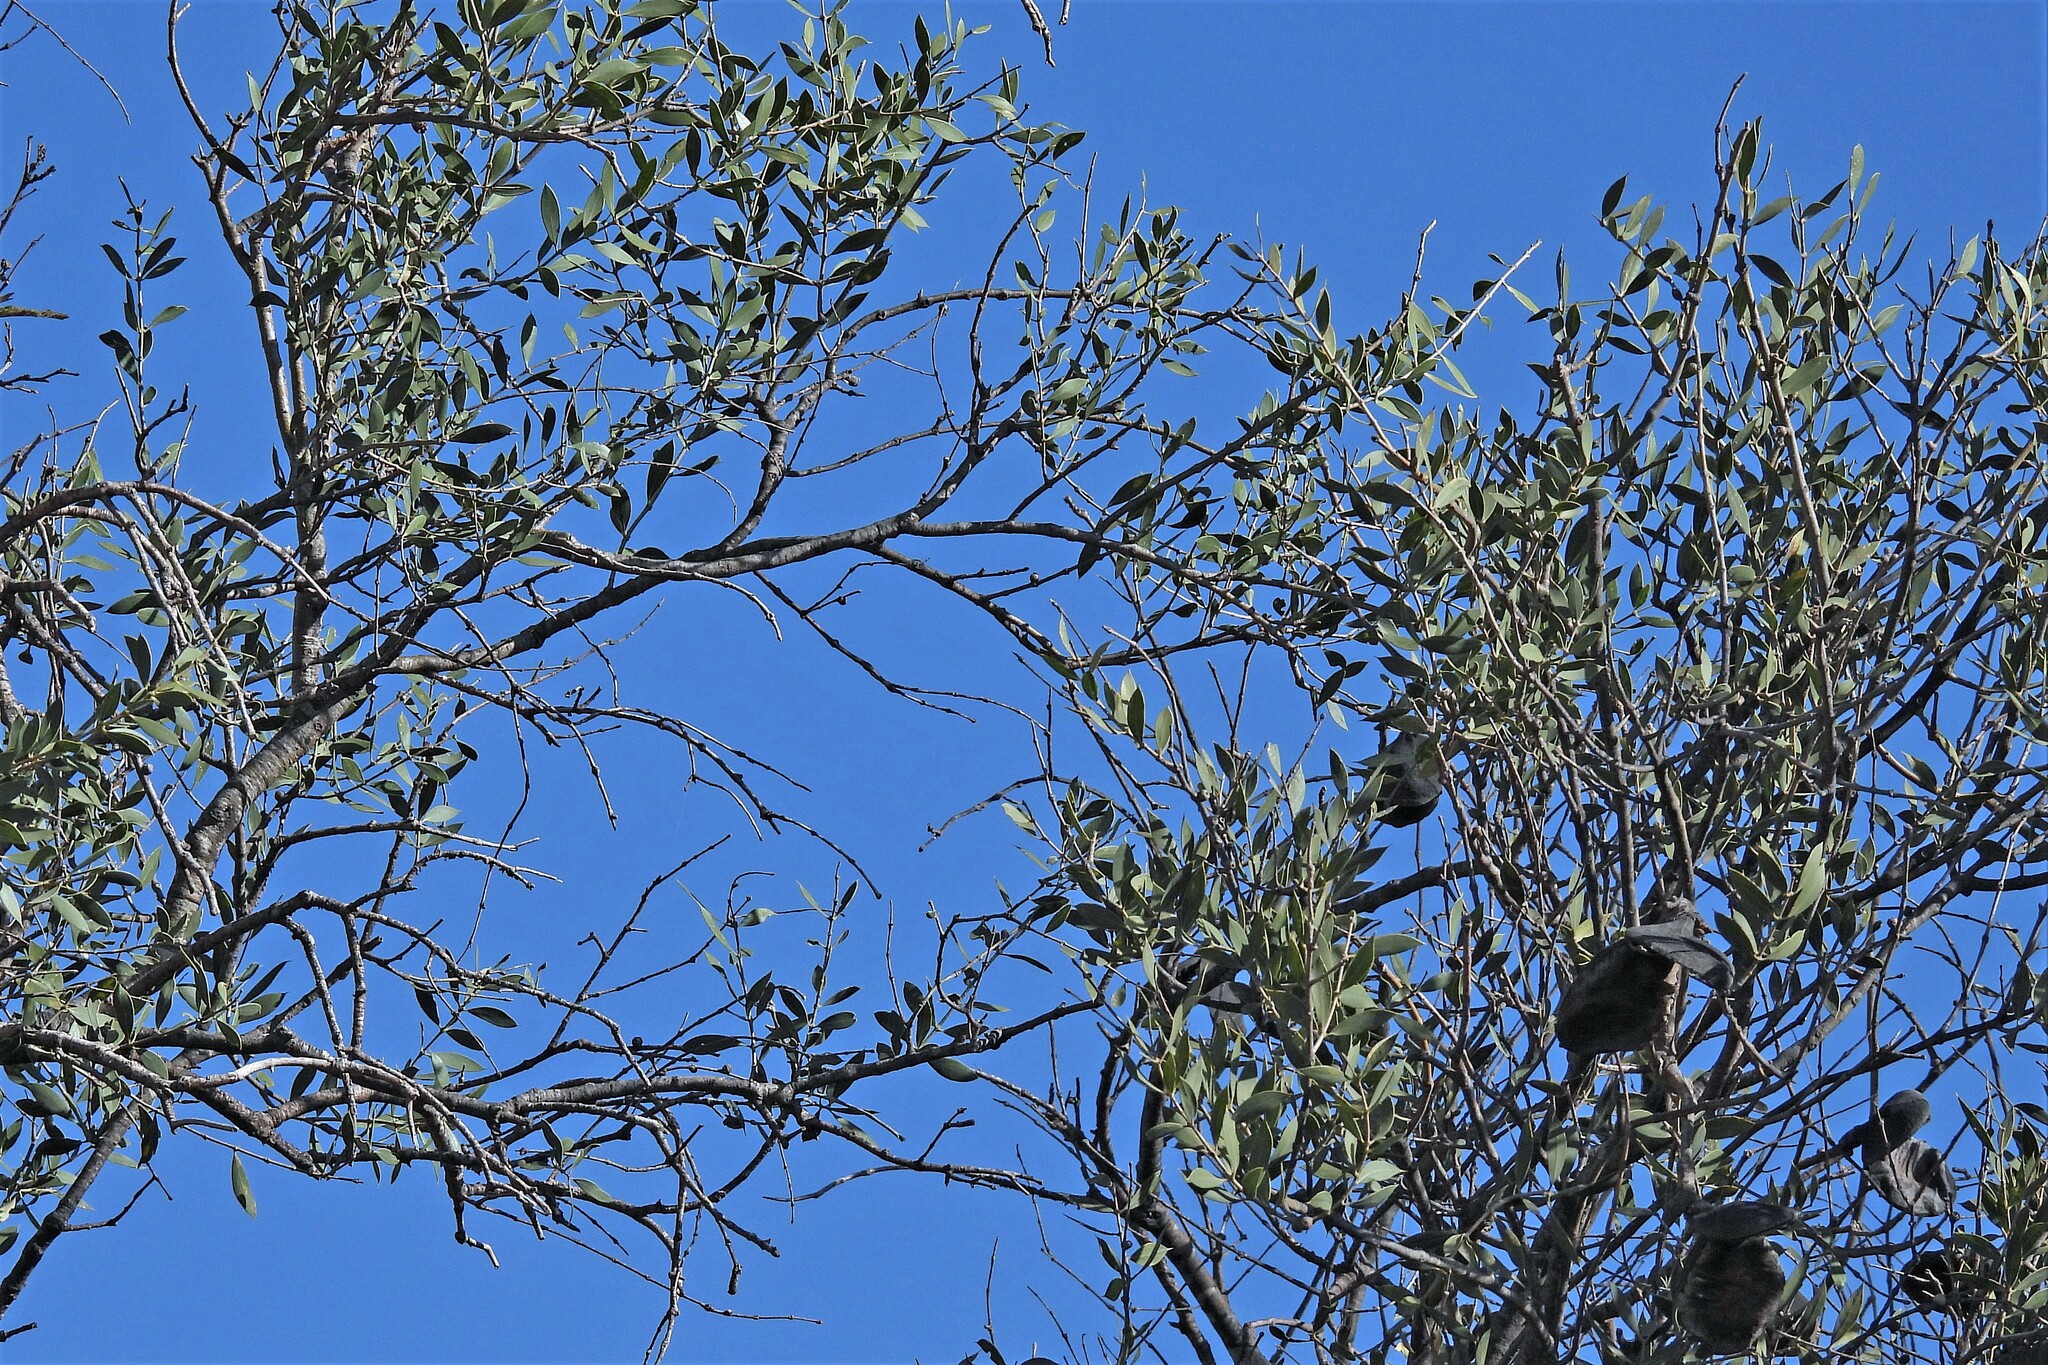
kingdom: Plantae
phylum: Tracheophyta
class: Magnoliopsida
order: Gentianales
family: Apocynaceae
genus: Aspidosperma
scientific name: Aspidosperma quebracho-blanco
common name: White quebracho
